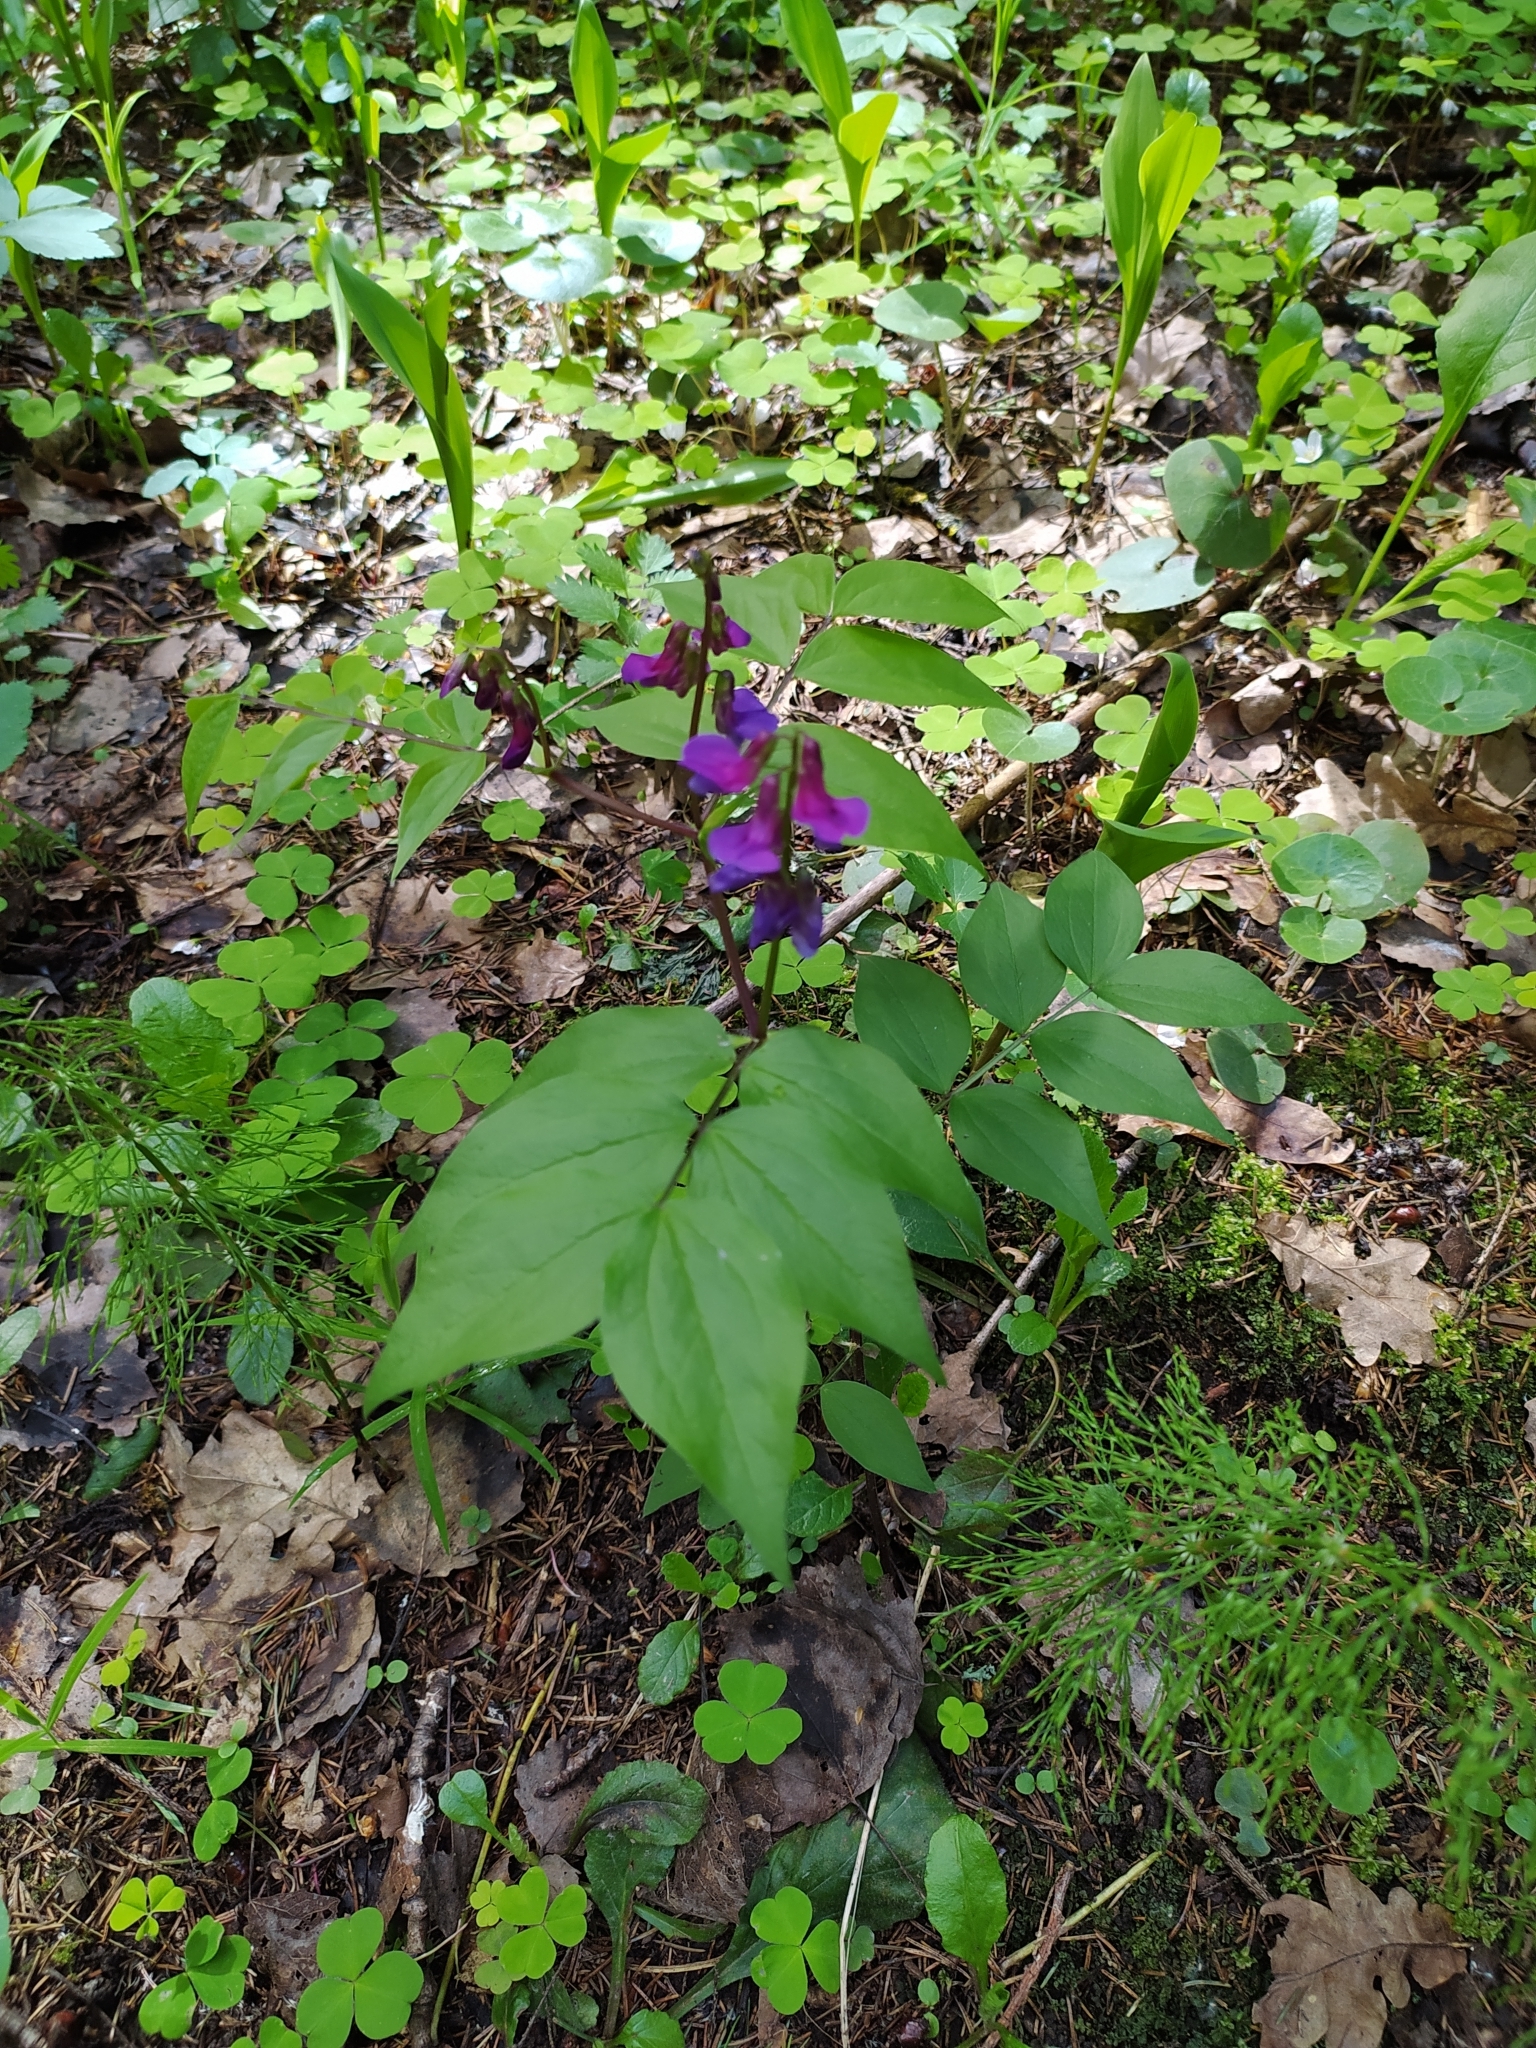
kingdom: Plantae
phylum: Tracheophyta
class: Magnoliopsida
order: Fabales
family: Fabaceae
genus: Lathyrus
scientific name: Lathyrus vernus
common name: Spring pea
